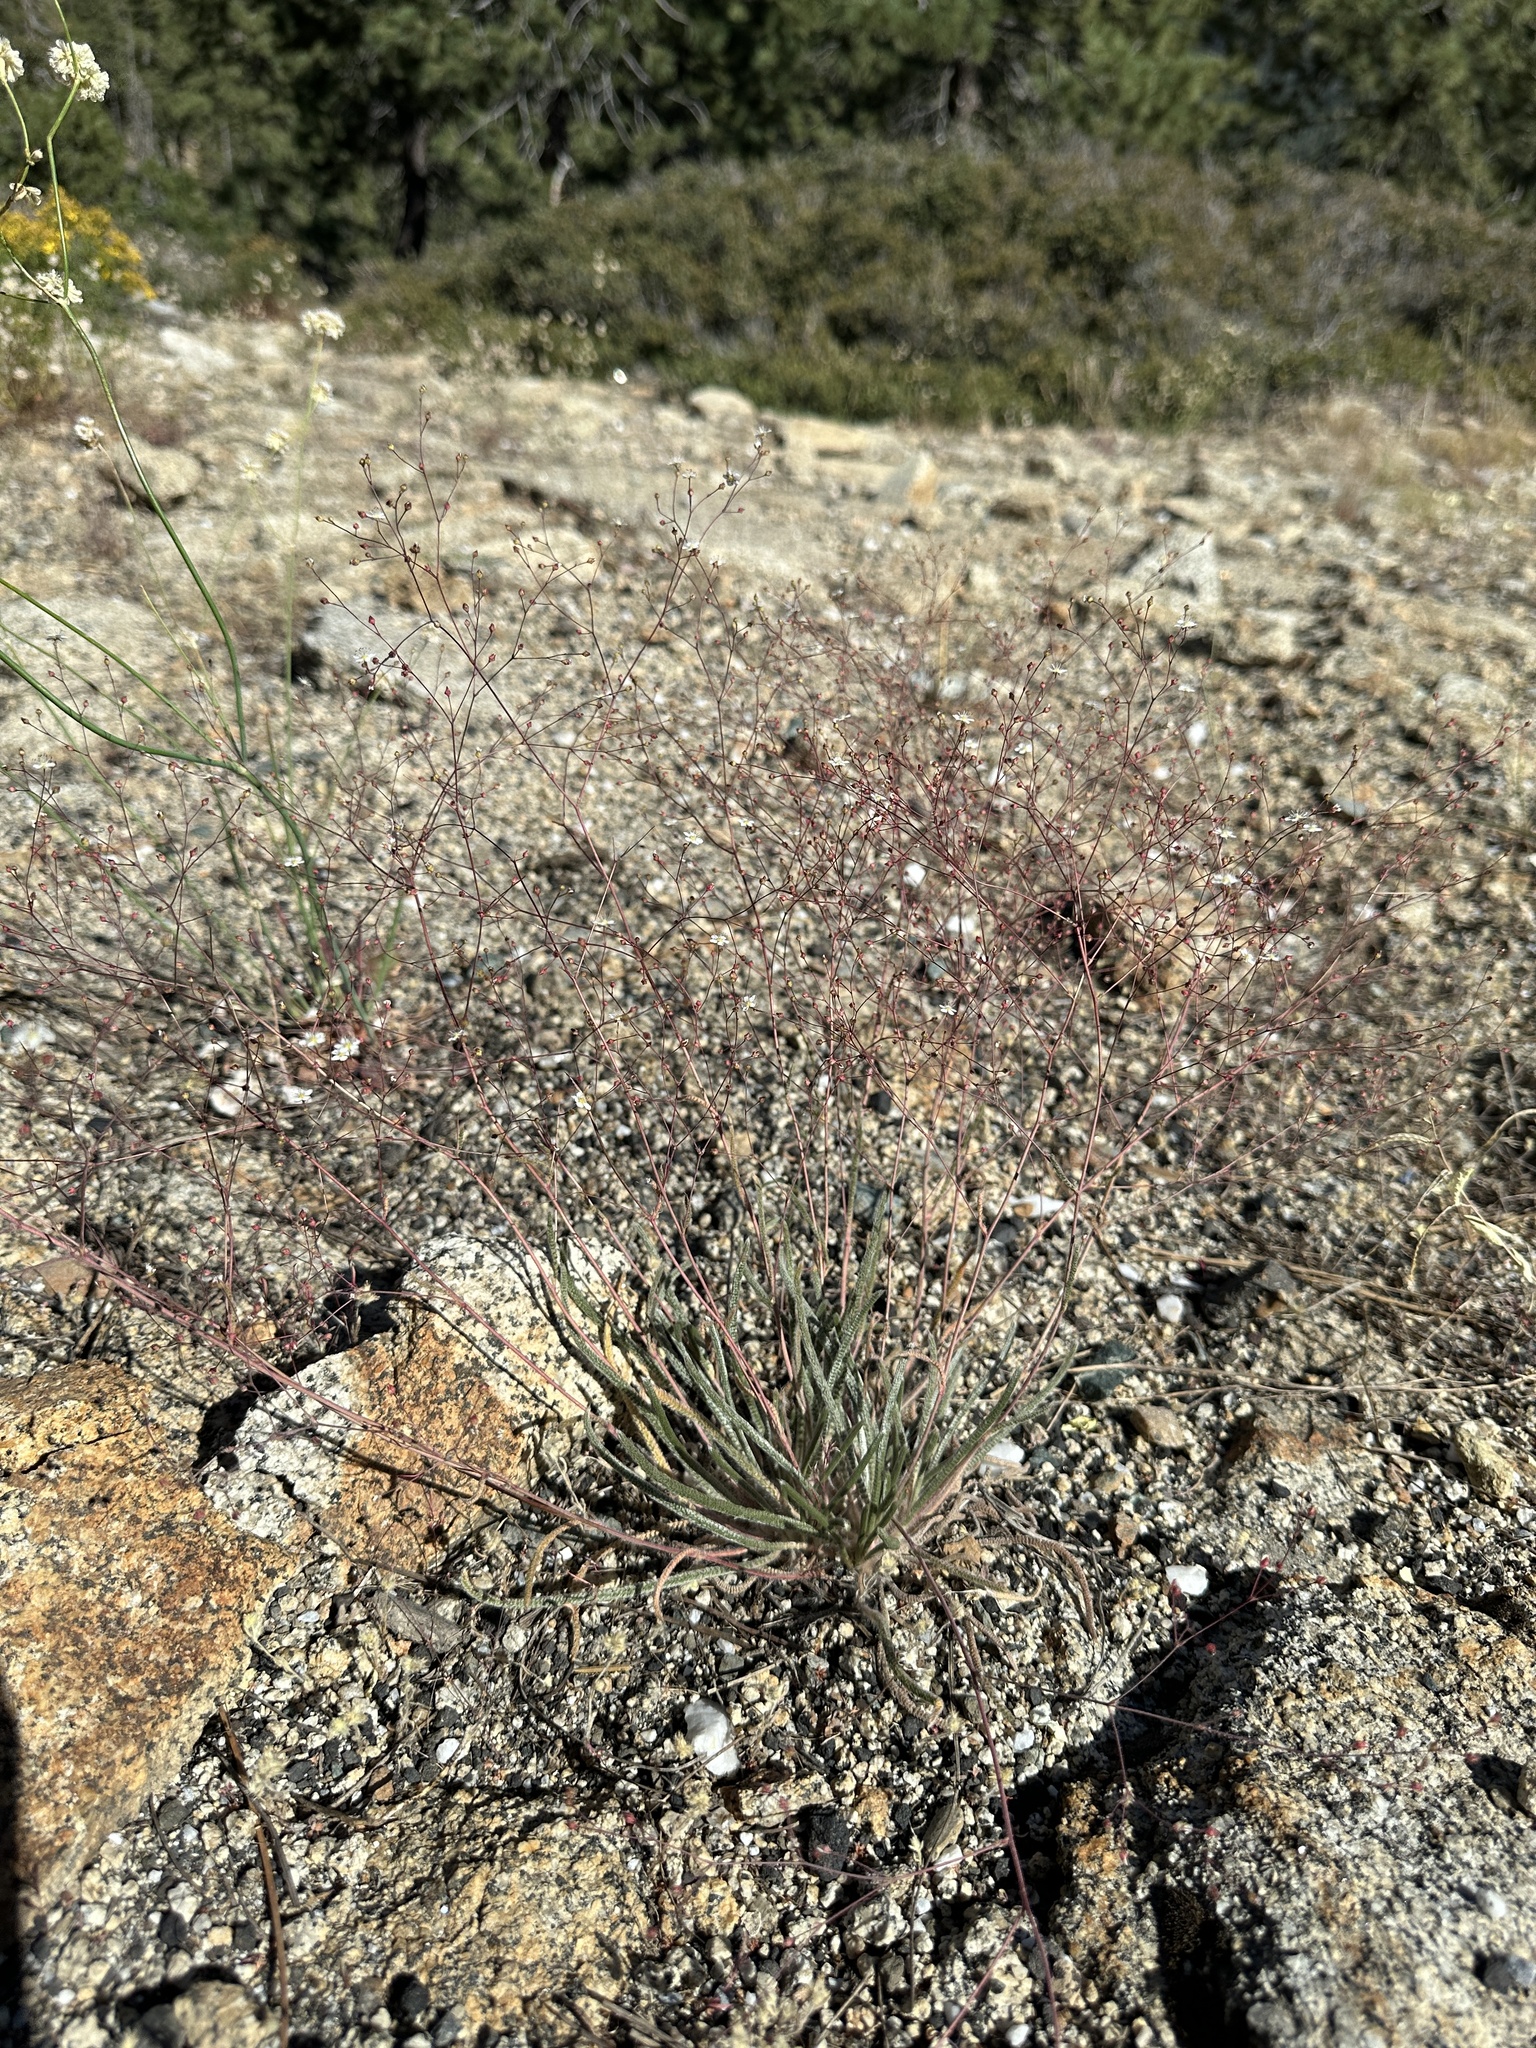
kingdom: Plantae
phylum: Tracheophyta
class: Magnoliopsida
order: Rosales
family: Rosaceae
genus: Potentilla
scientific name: Potentilla santolinoides
